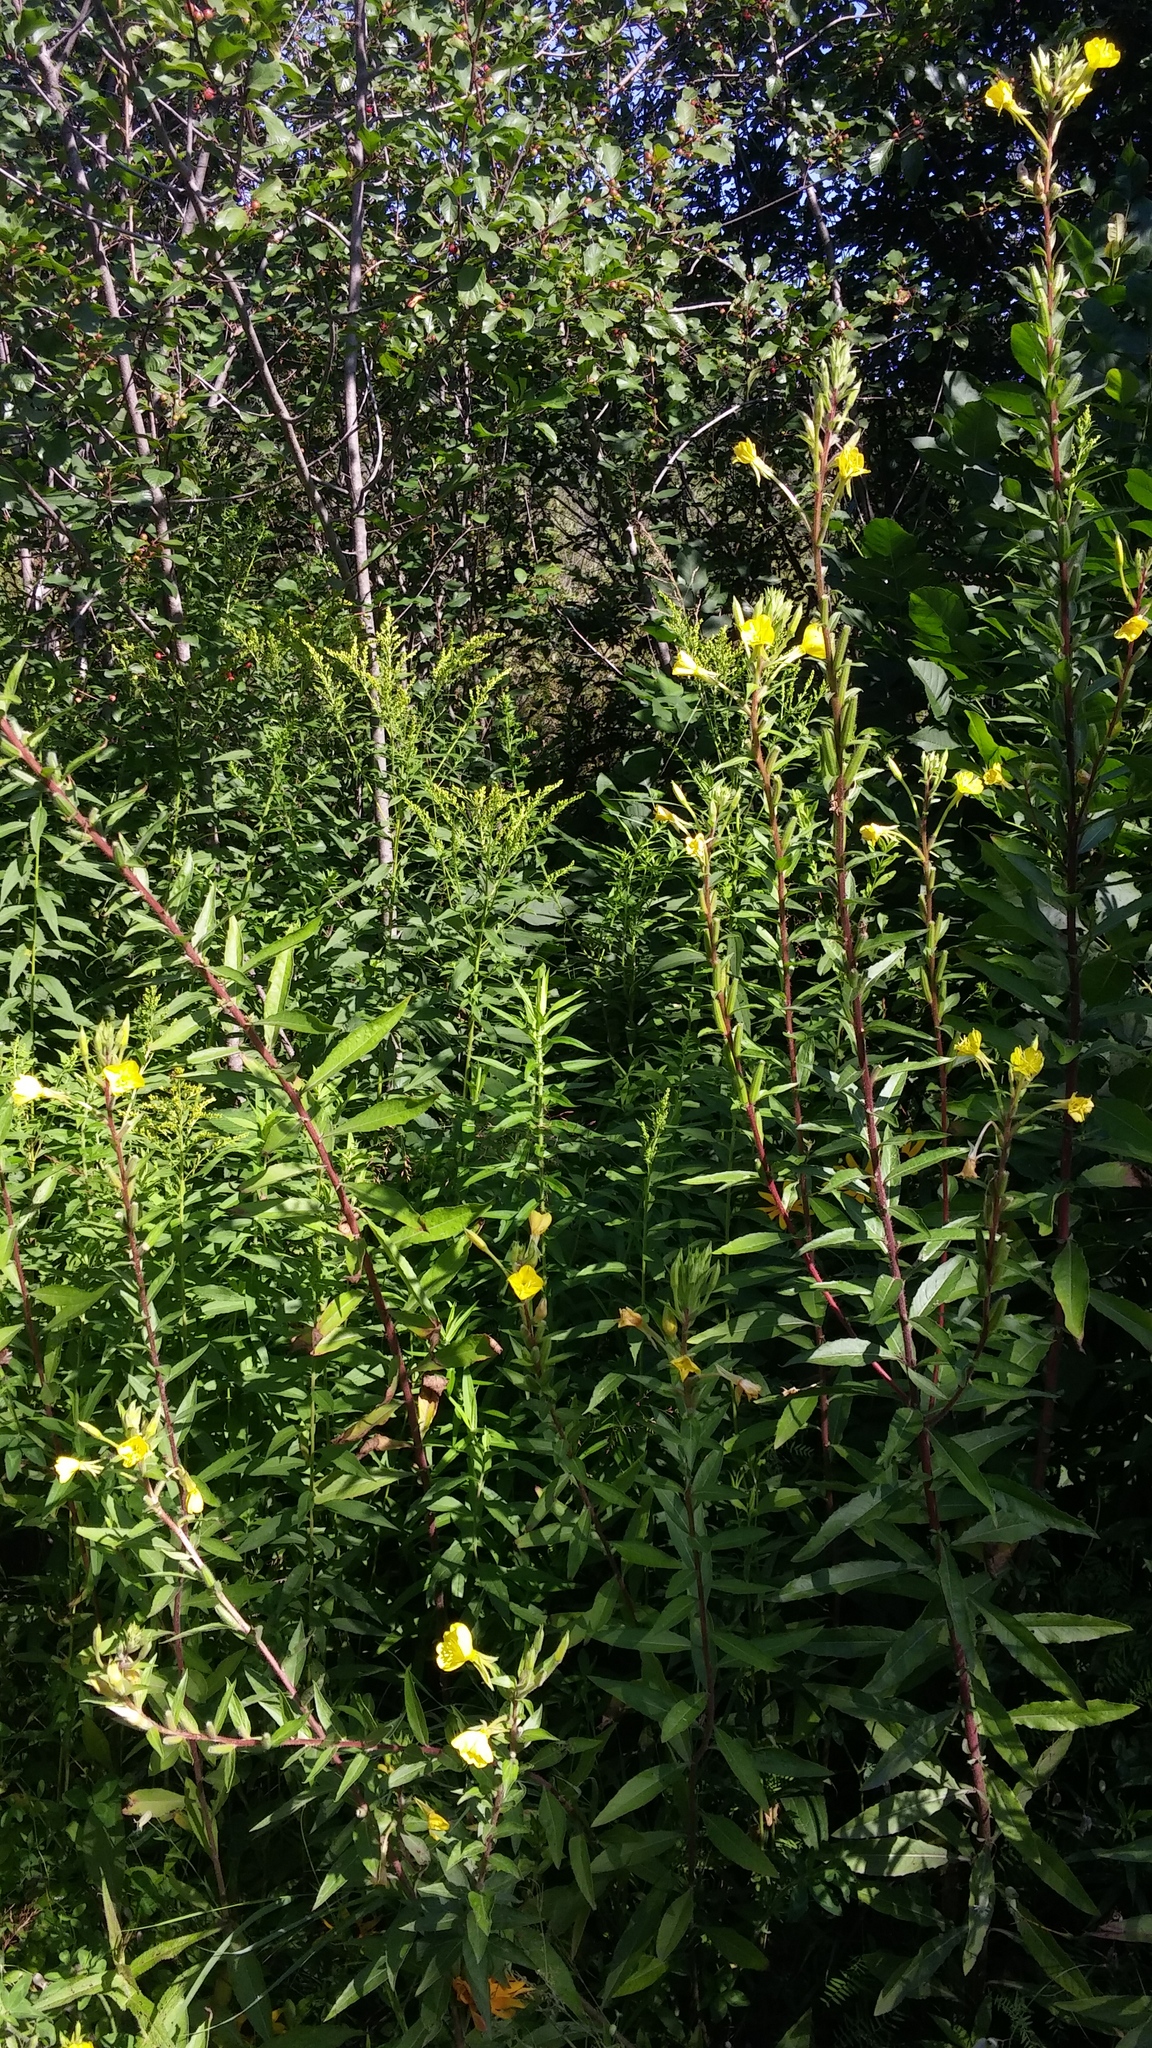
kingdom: Plantae
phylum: Tracheophyta
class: Magnoliopsida
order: Myrtales
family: Onagraceae
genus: Oenothera
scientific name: Oenothera biennis
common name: Common evening-primrose
